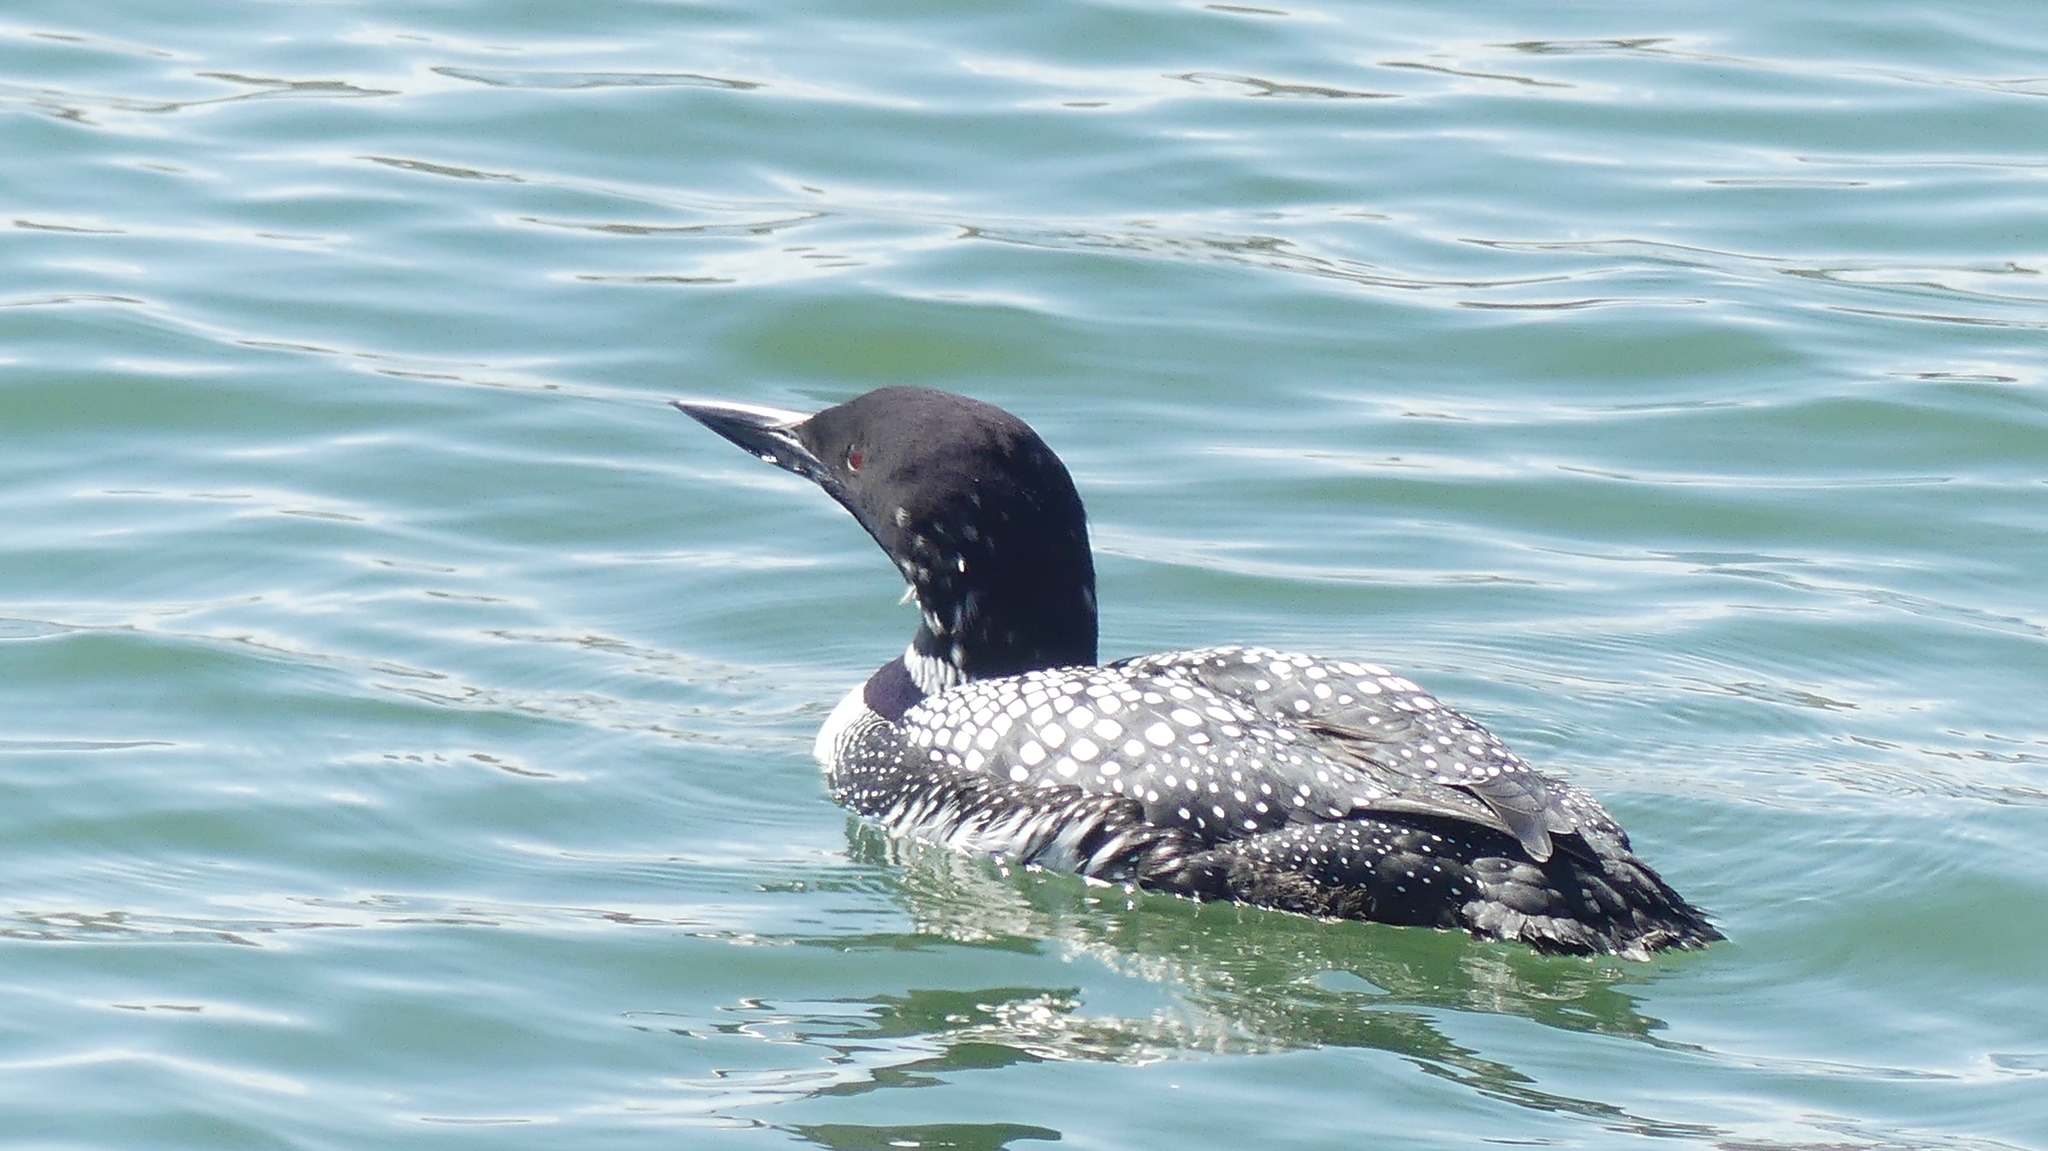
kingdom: Animalia
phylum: Chordata
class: Aves
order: Gaviiformes
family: Gaviidae
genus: Gavia
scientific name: Gavia immer
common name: Common loon
